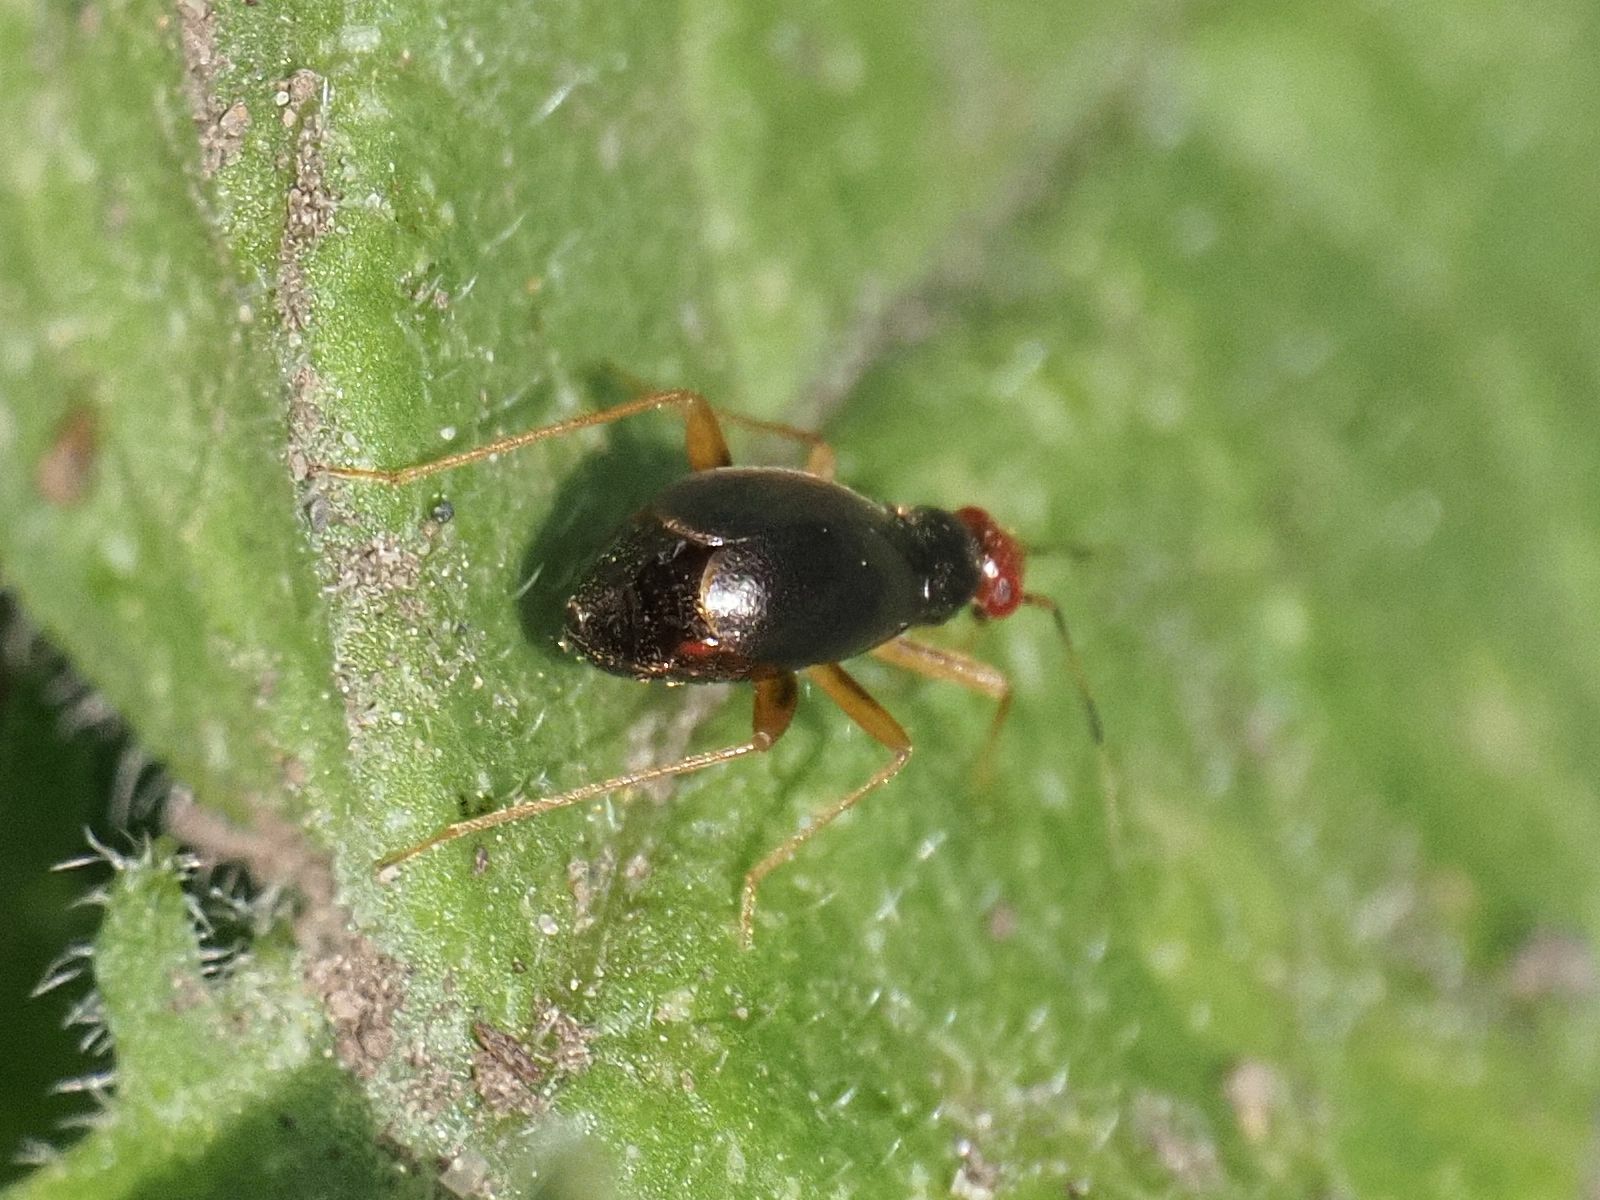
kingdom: Animalia
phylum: Arthropoda
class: Insecta
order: Hemiptera
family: Miridae
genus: Orthonotus
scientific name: Orthonotus rufifrons
